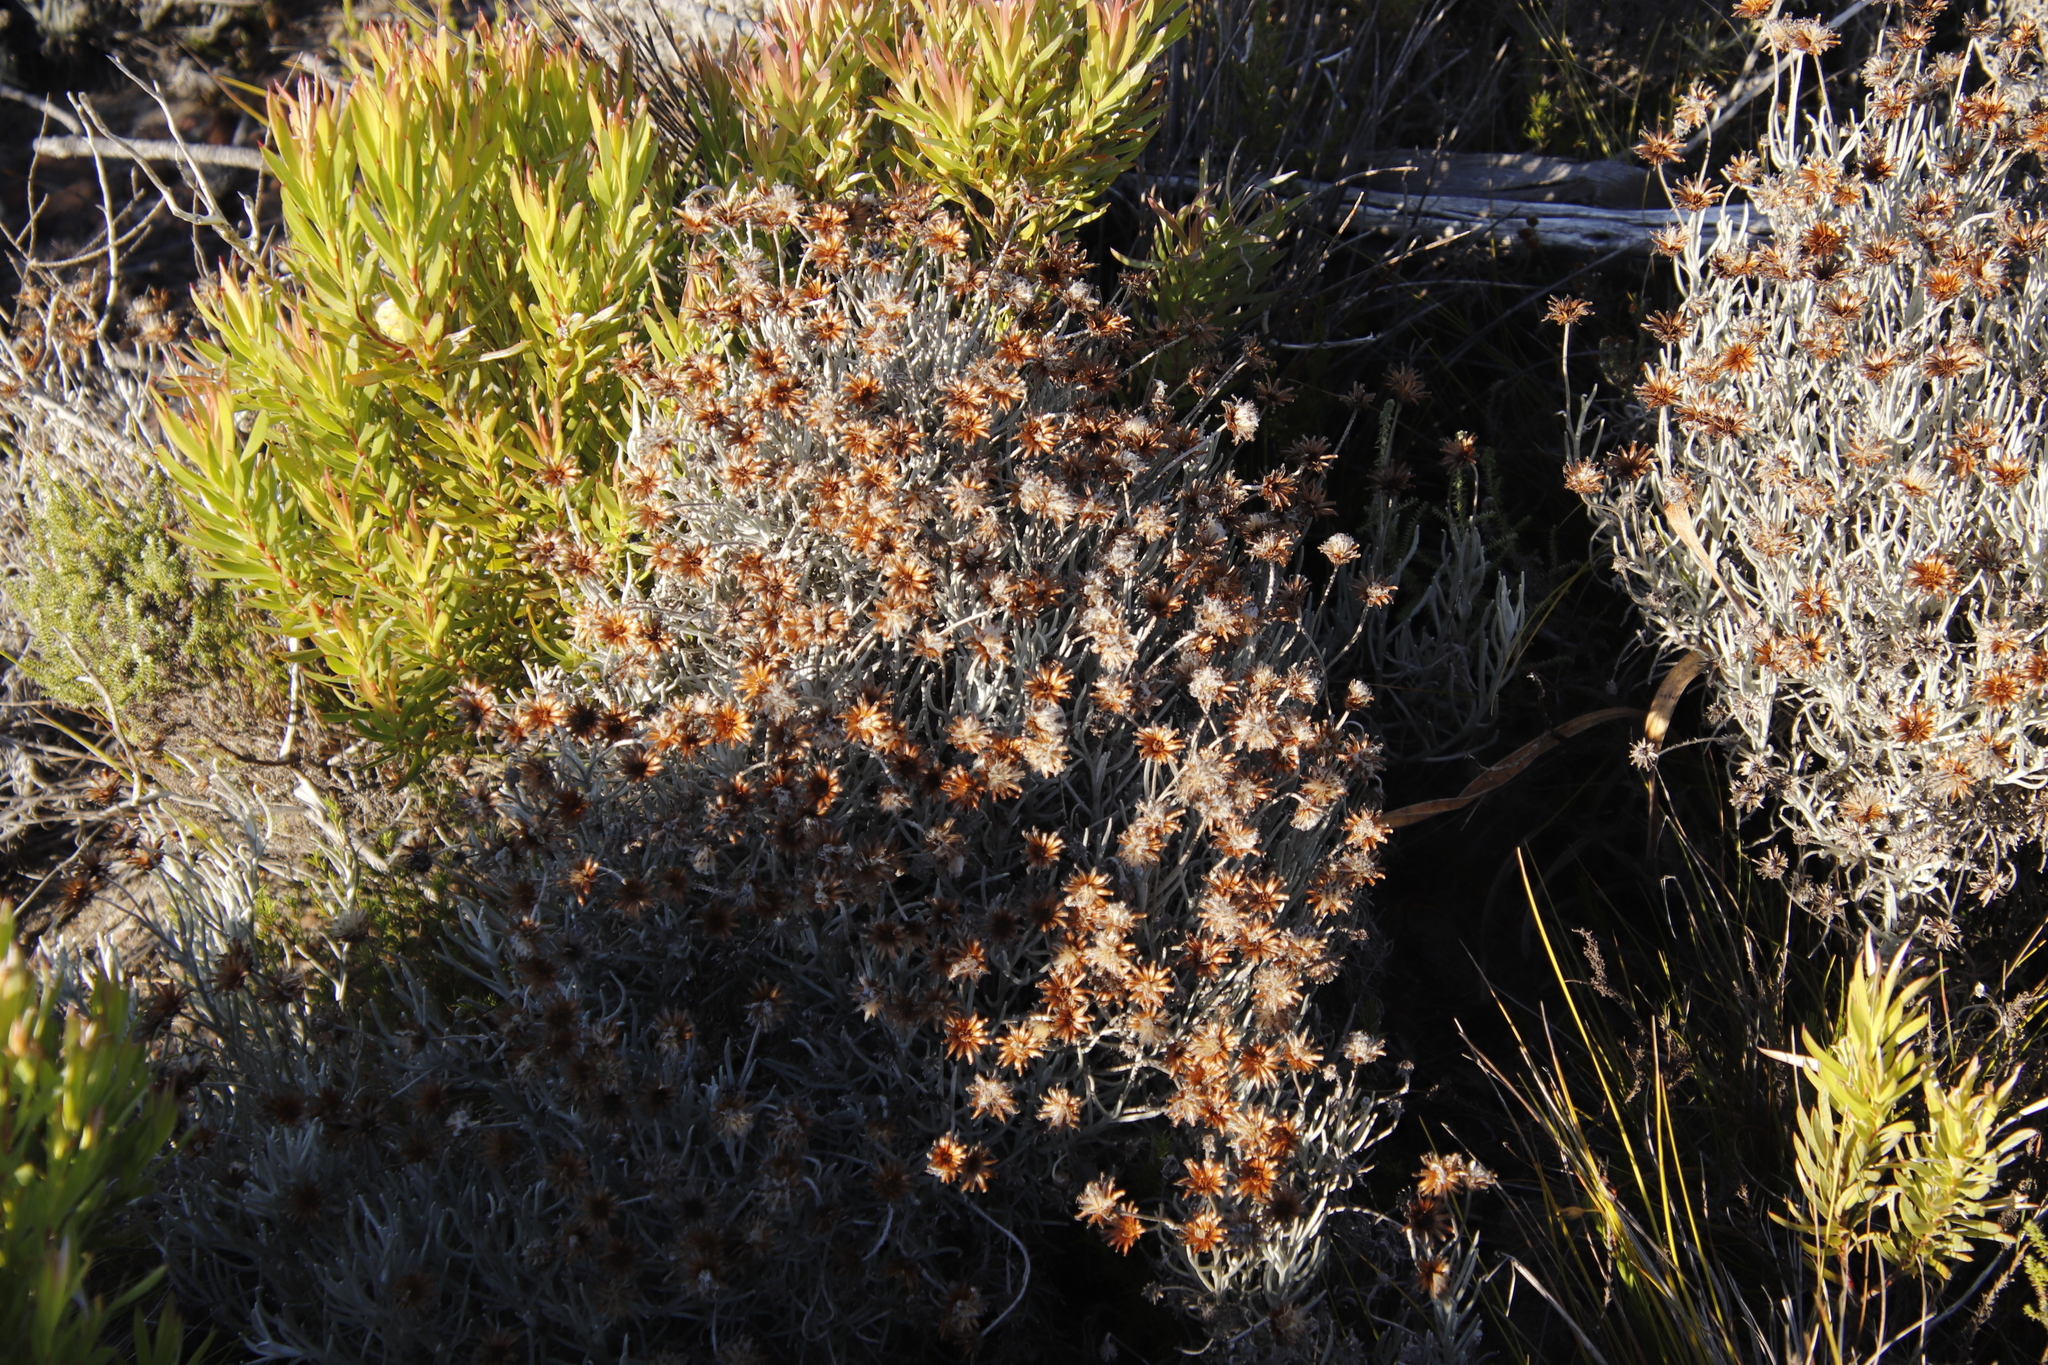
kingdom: Plantae
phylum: Tracheophyta
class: Magnoliopsida
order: Asterales
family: Asteraceae
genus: Syncarpha
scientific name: Syncarpha gnaphaloides
